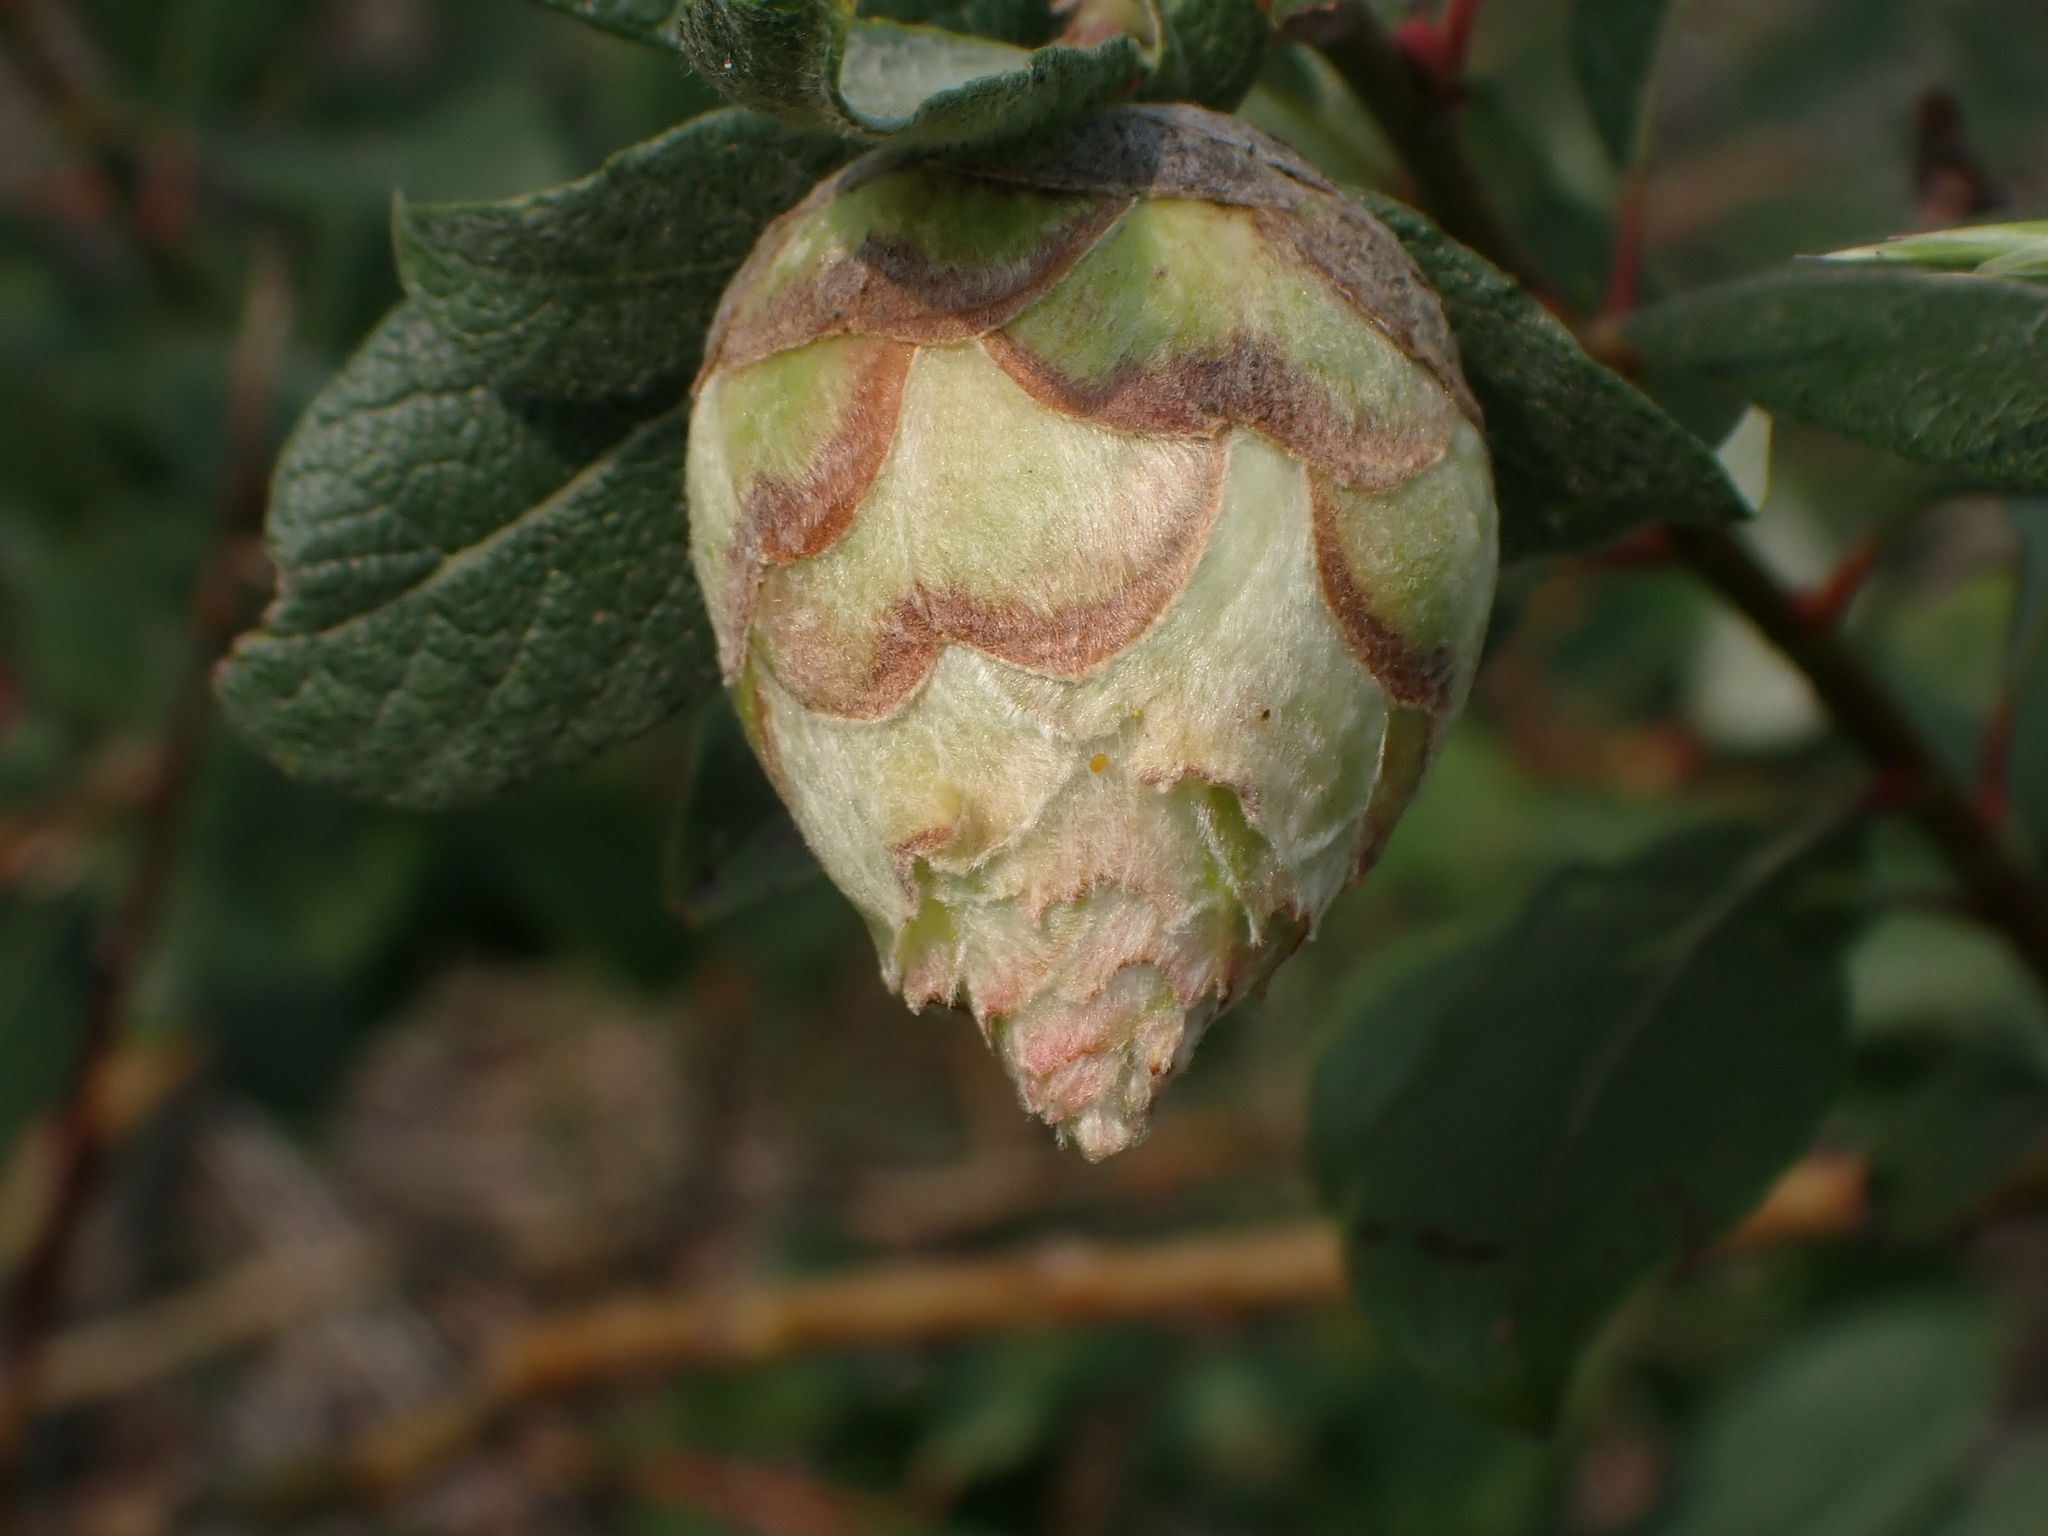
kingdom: Animalia
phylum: Arthropoda
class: Insecta
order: Diptera
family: Cecidomyiidae
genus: Rabdophaga
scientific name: Rabdophaga strobiloides
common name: Willow pinecone gall midge
